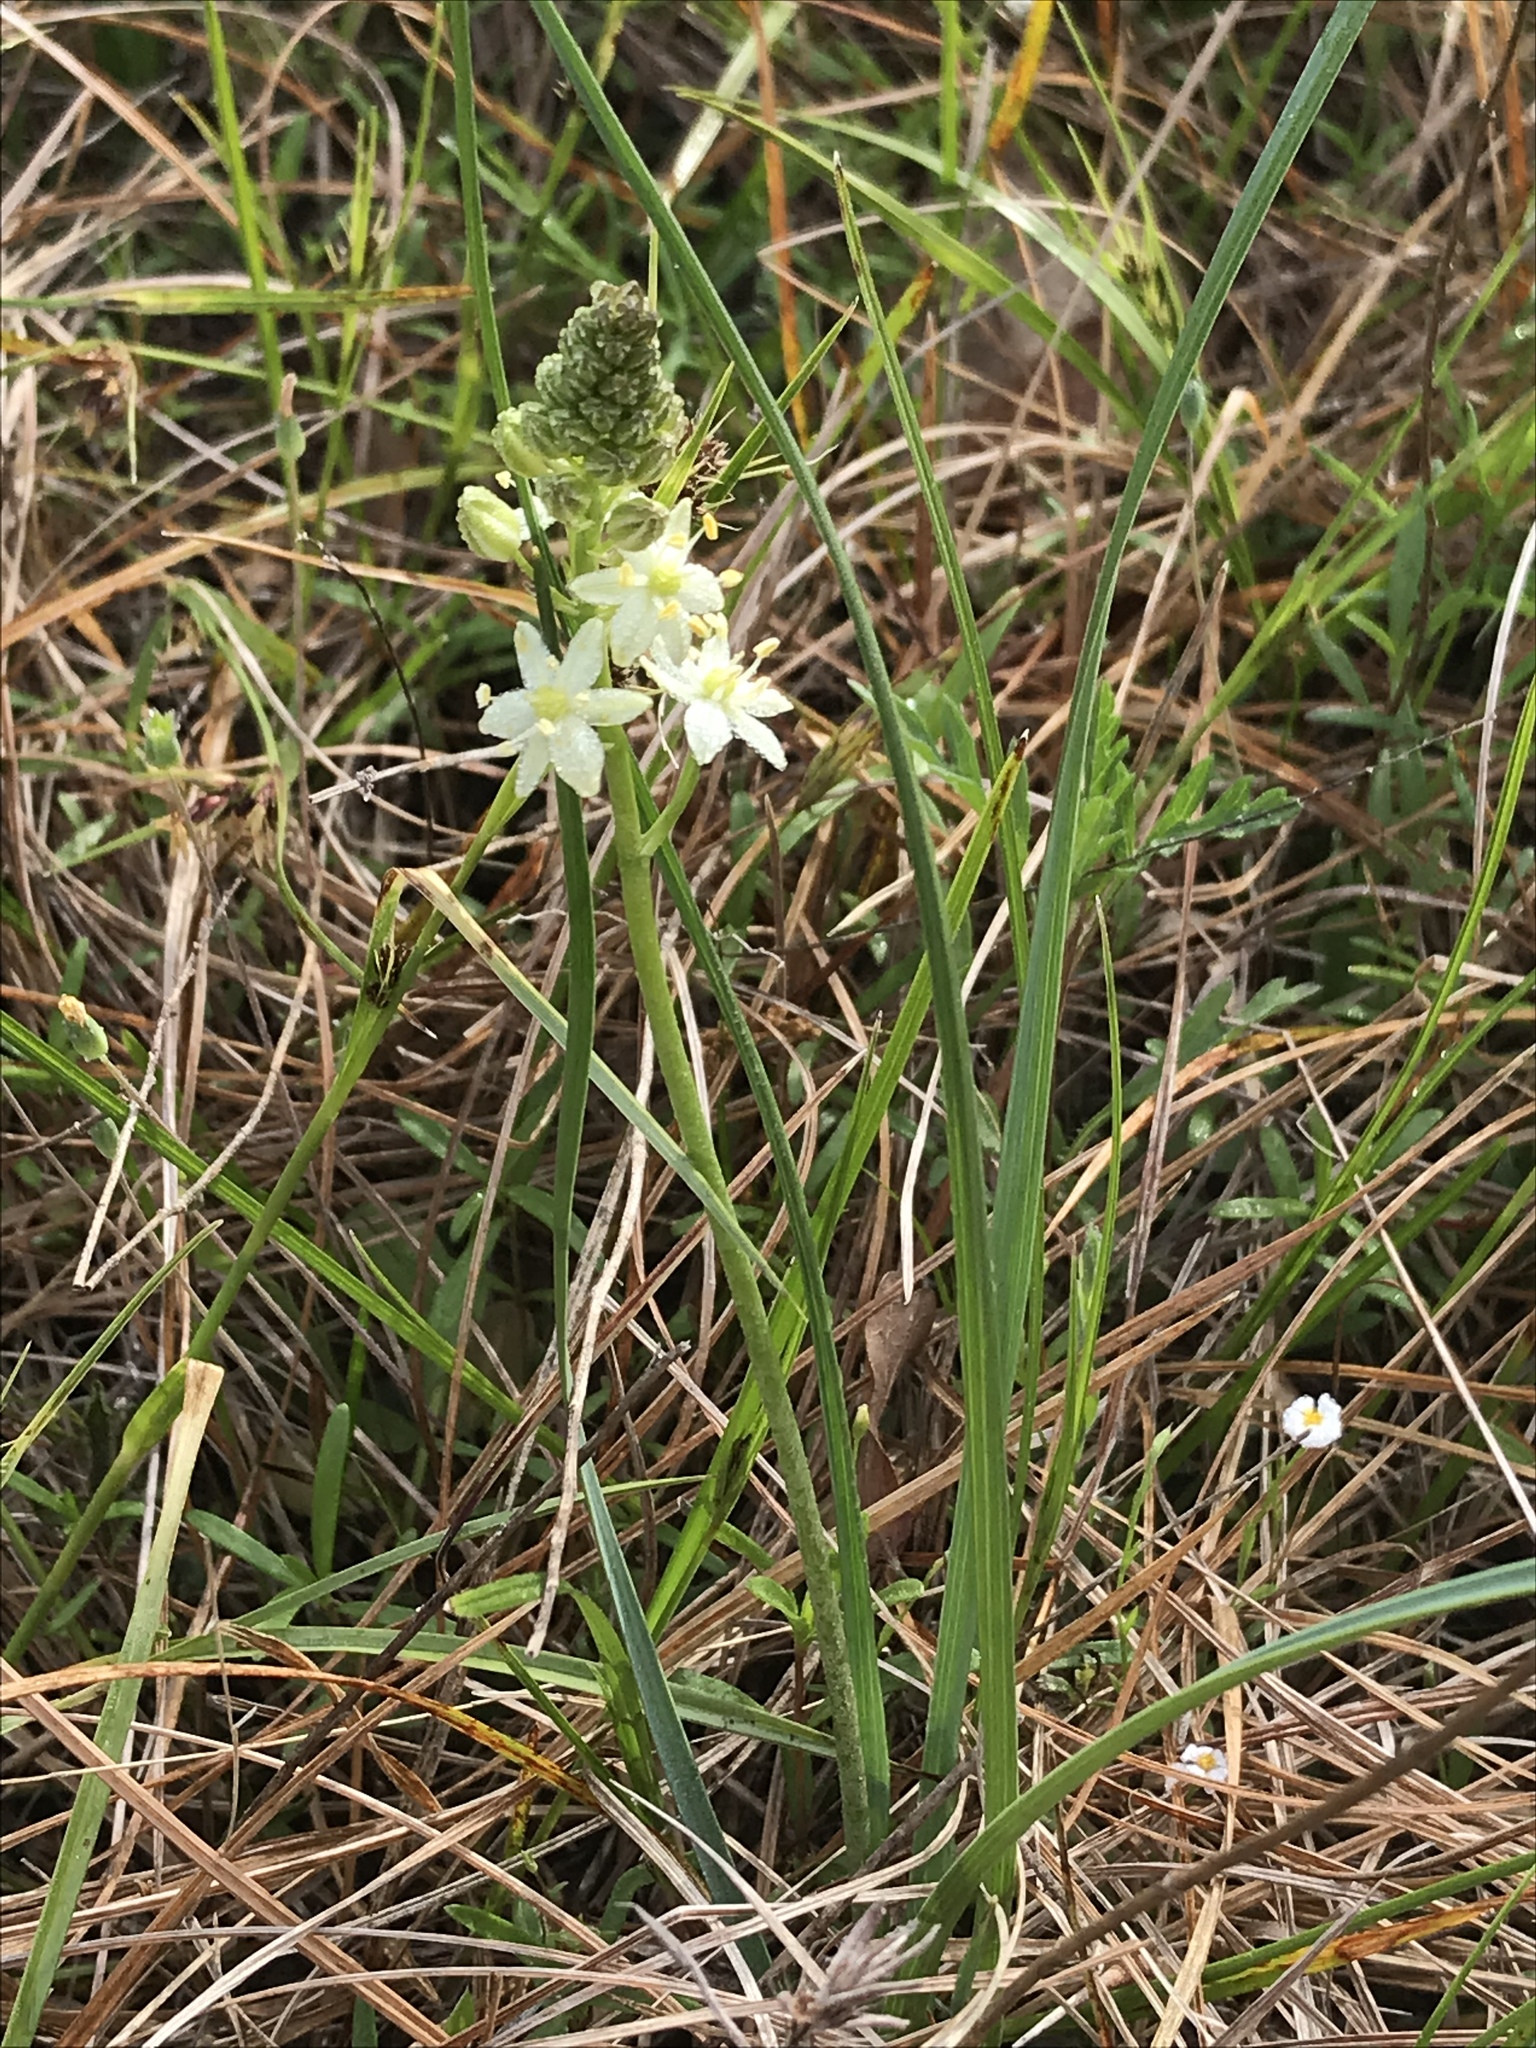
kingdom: Plantae
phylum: Tracheophyta
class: Liliopsida
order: Asparagales
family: Asparagaceae
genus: Schoenolirion
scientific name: Schoenolirion wrightii
